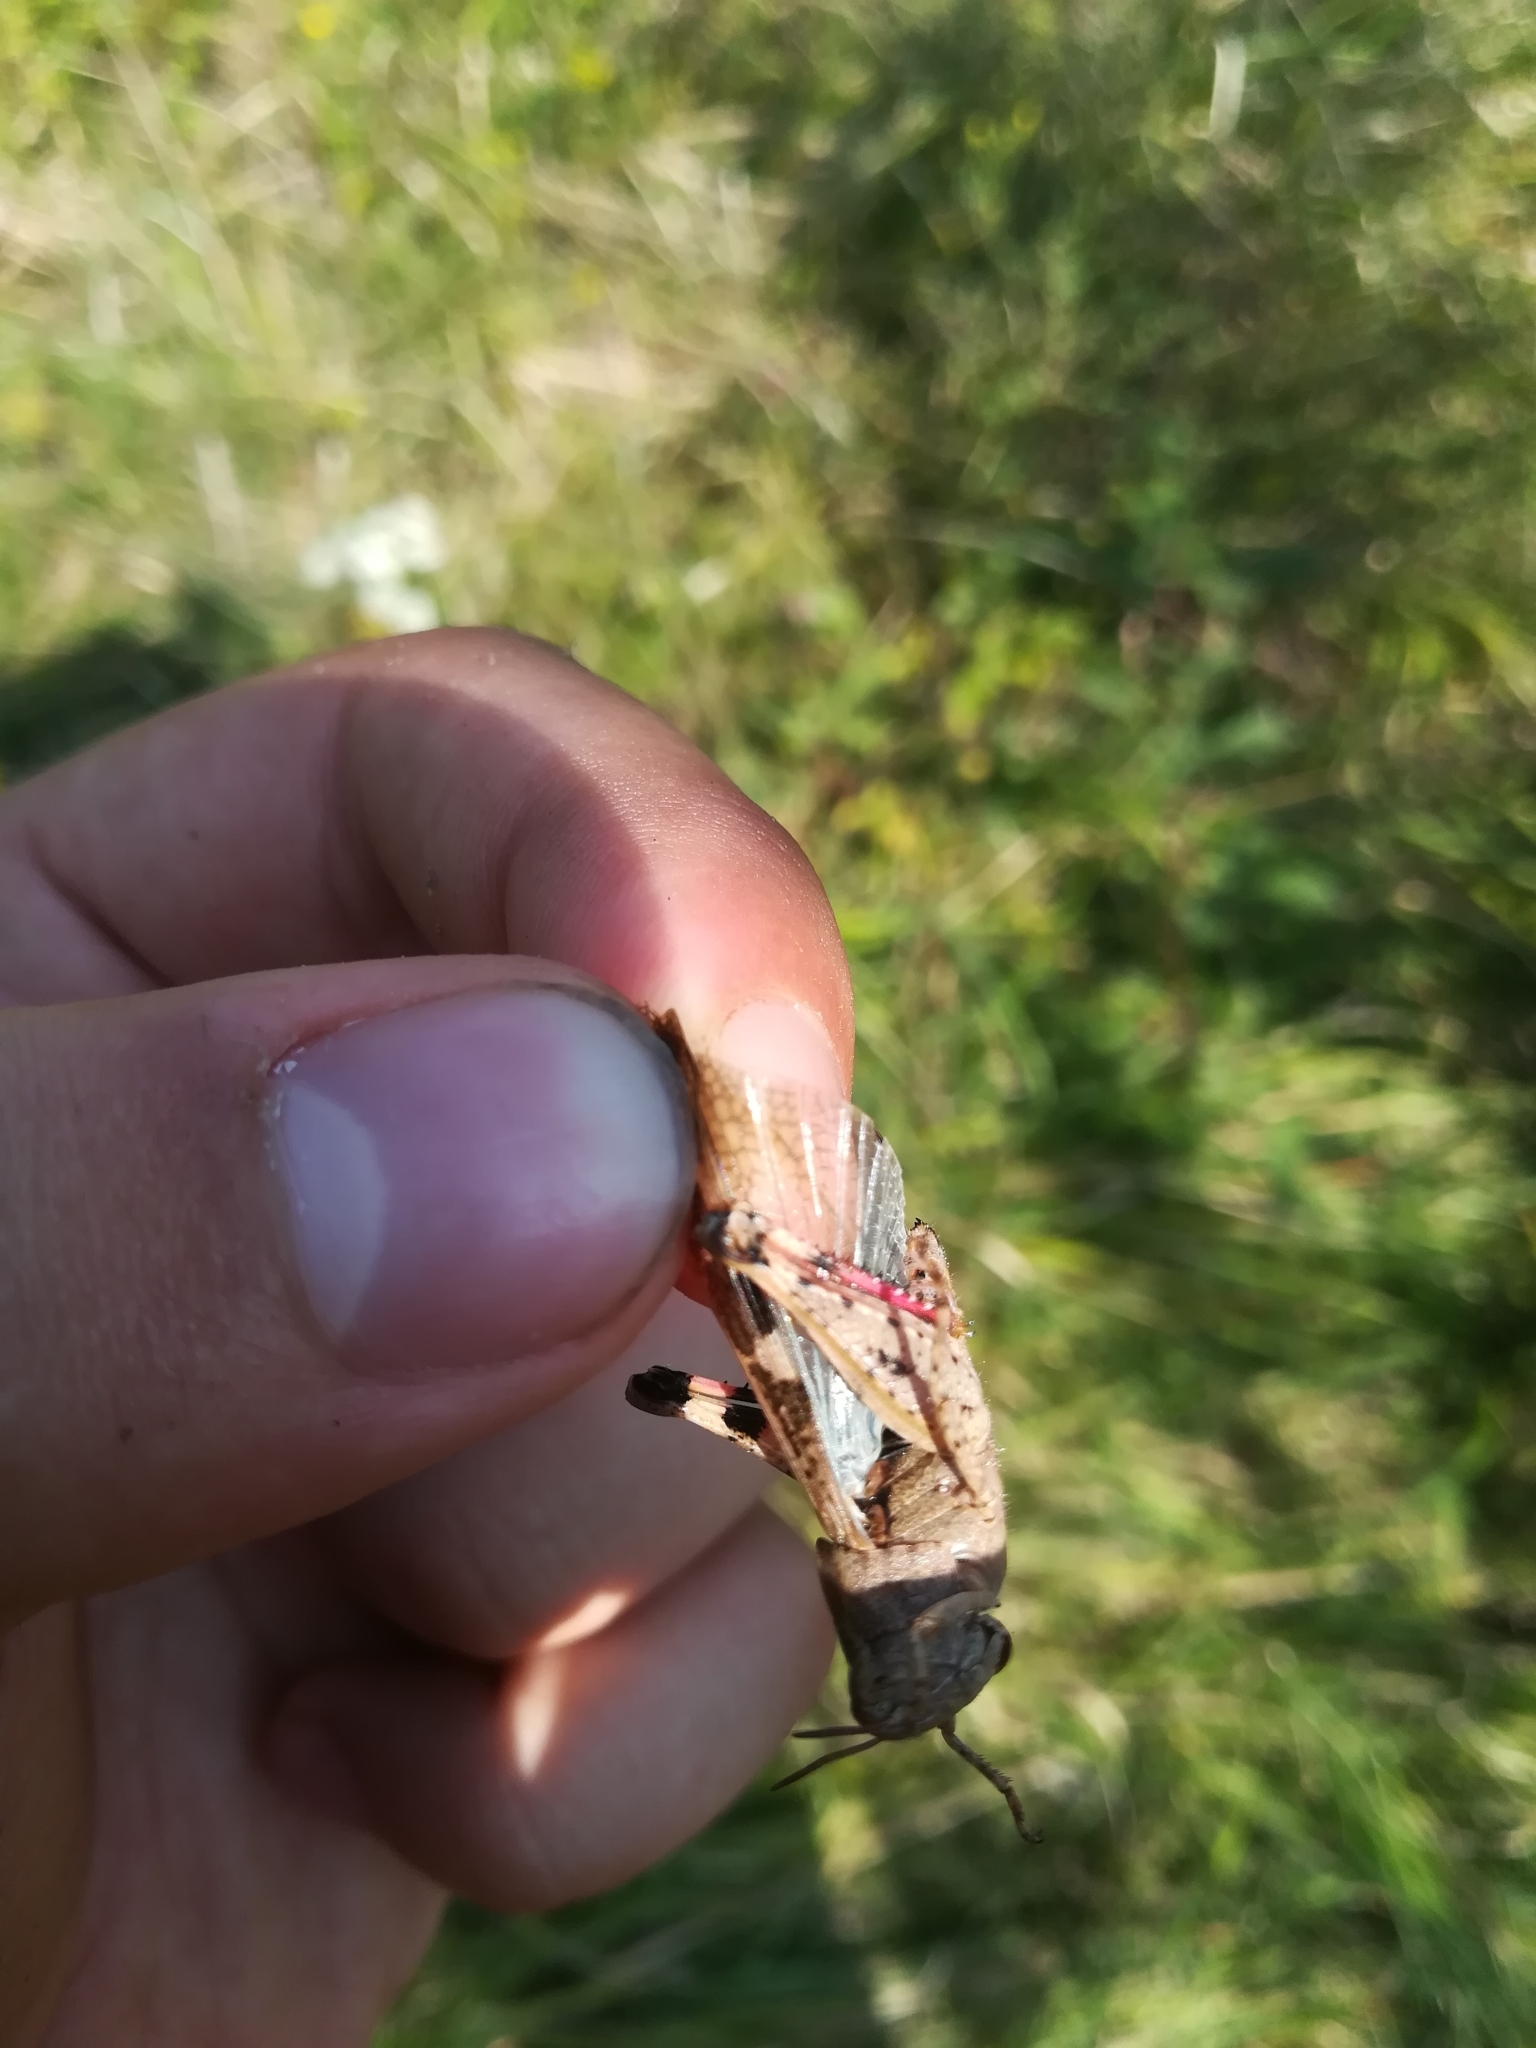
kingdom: Animalia
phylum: Arthropoda
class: Insecta
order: Orthoptera
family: Acrididae
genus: Aiolopus
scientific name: Aiolopus strepens
